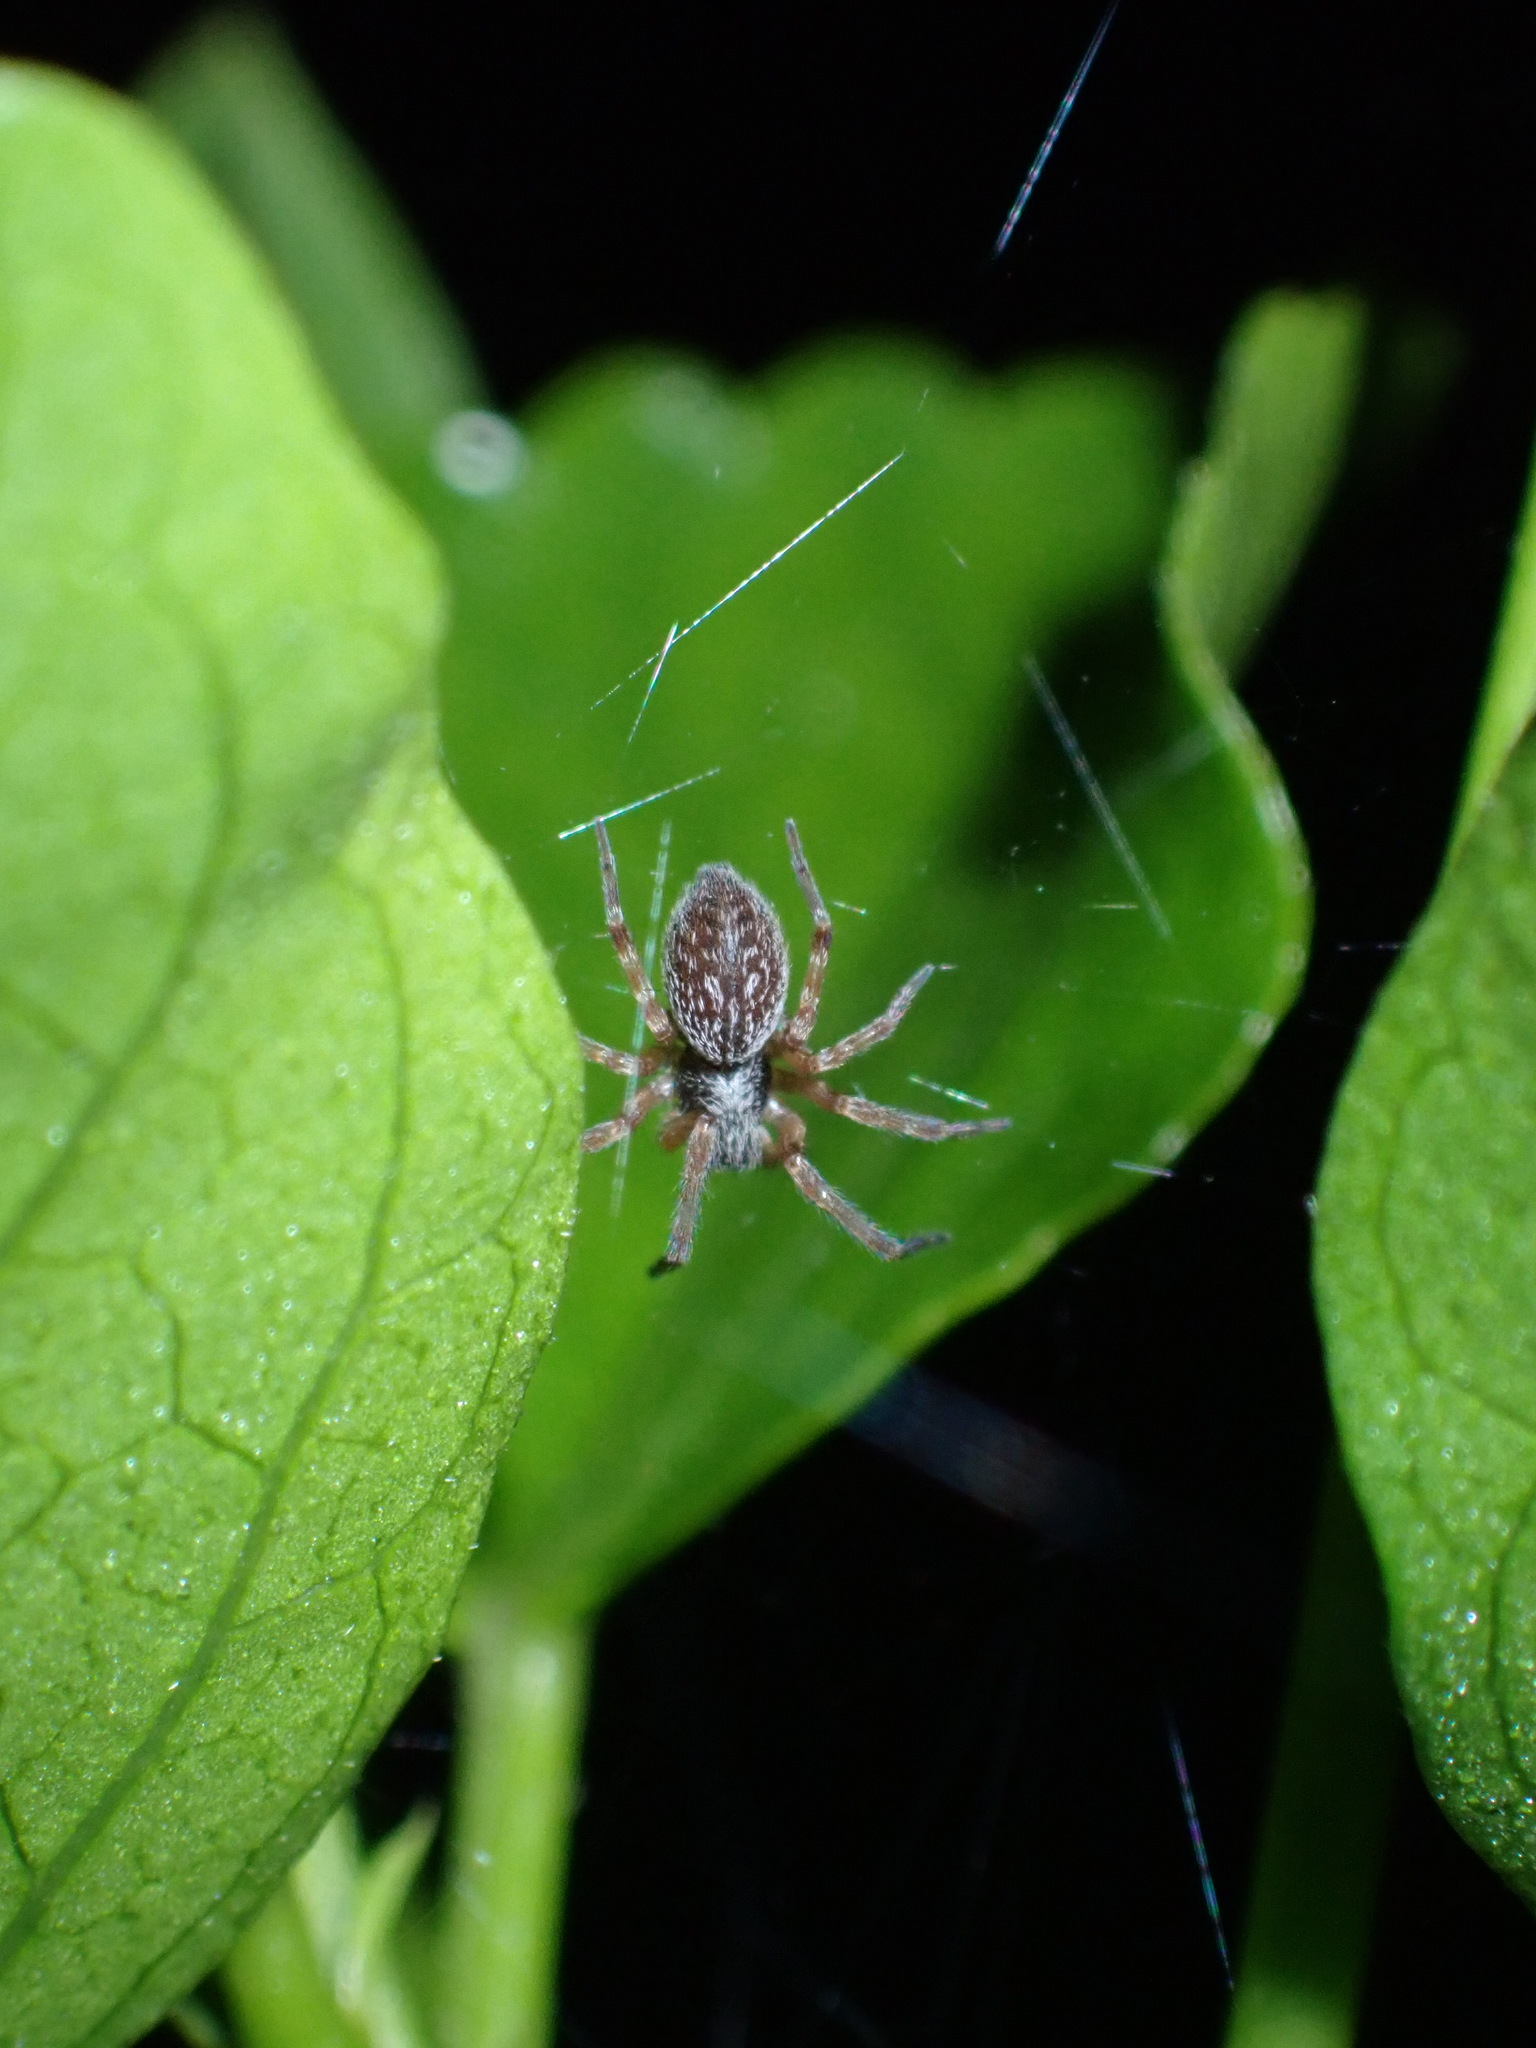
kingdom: Animalia
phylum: Arthropoda
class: Arachnida
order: Araneae
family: Desidae
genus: Badumna
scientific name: Badumna longinqua
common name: Gray house spider
